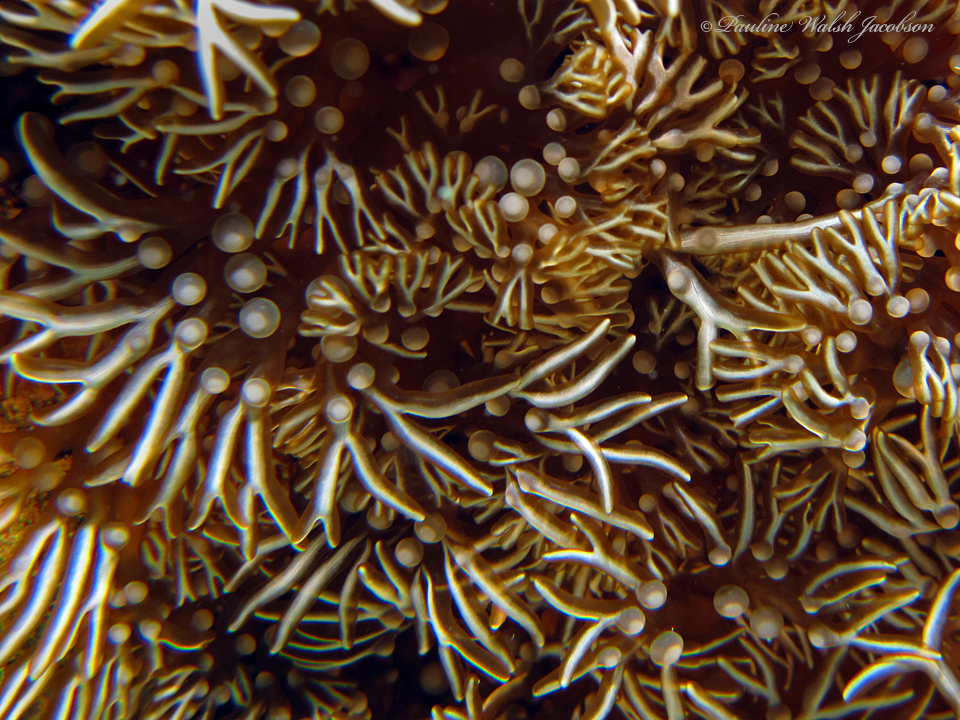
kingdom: Animalia
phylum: Cnidaria
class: Anthozoa
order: Actiniaria
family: Aliciidae
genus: Lebrunia
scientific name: Lebrunia neglecta
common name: Branching anemone
